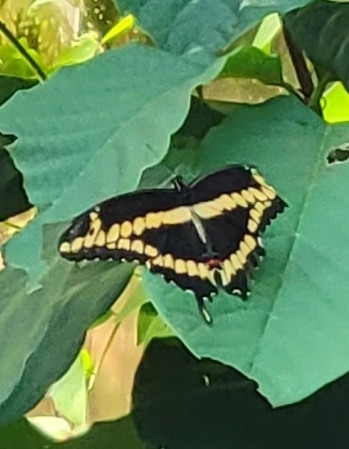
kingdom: Animalia
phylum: Arthropoda
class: Insecta
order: Lepidoptera
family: Papilionidae
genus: Papilio
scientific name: Papilio cresphontes
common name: Giant swallowtail
